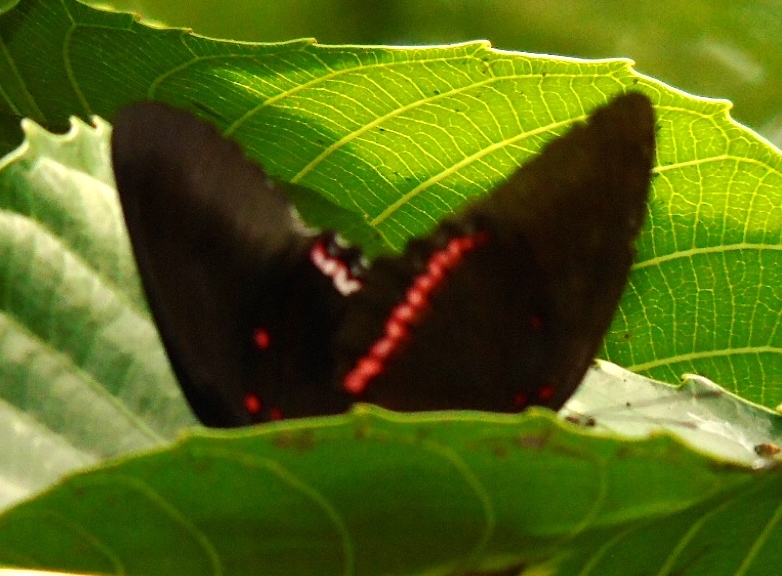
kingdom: Animalia
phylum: Arthropoda
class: Insecta
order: Lepidoptera
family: Nymphalidae
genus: Biblis
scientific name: Biblis aganisa
